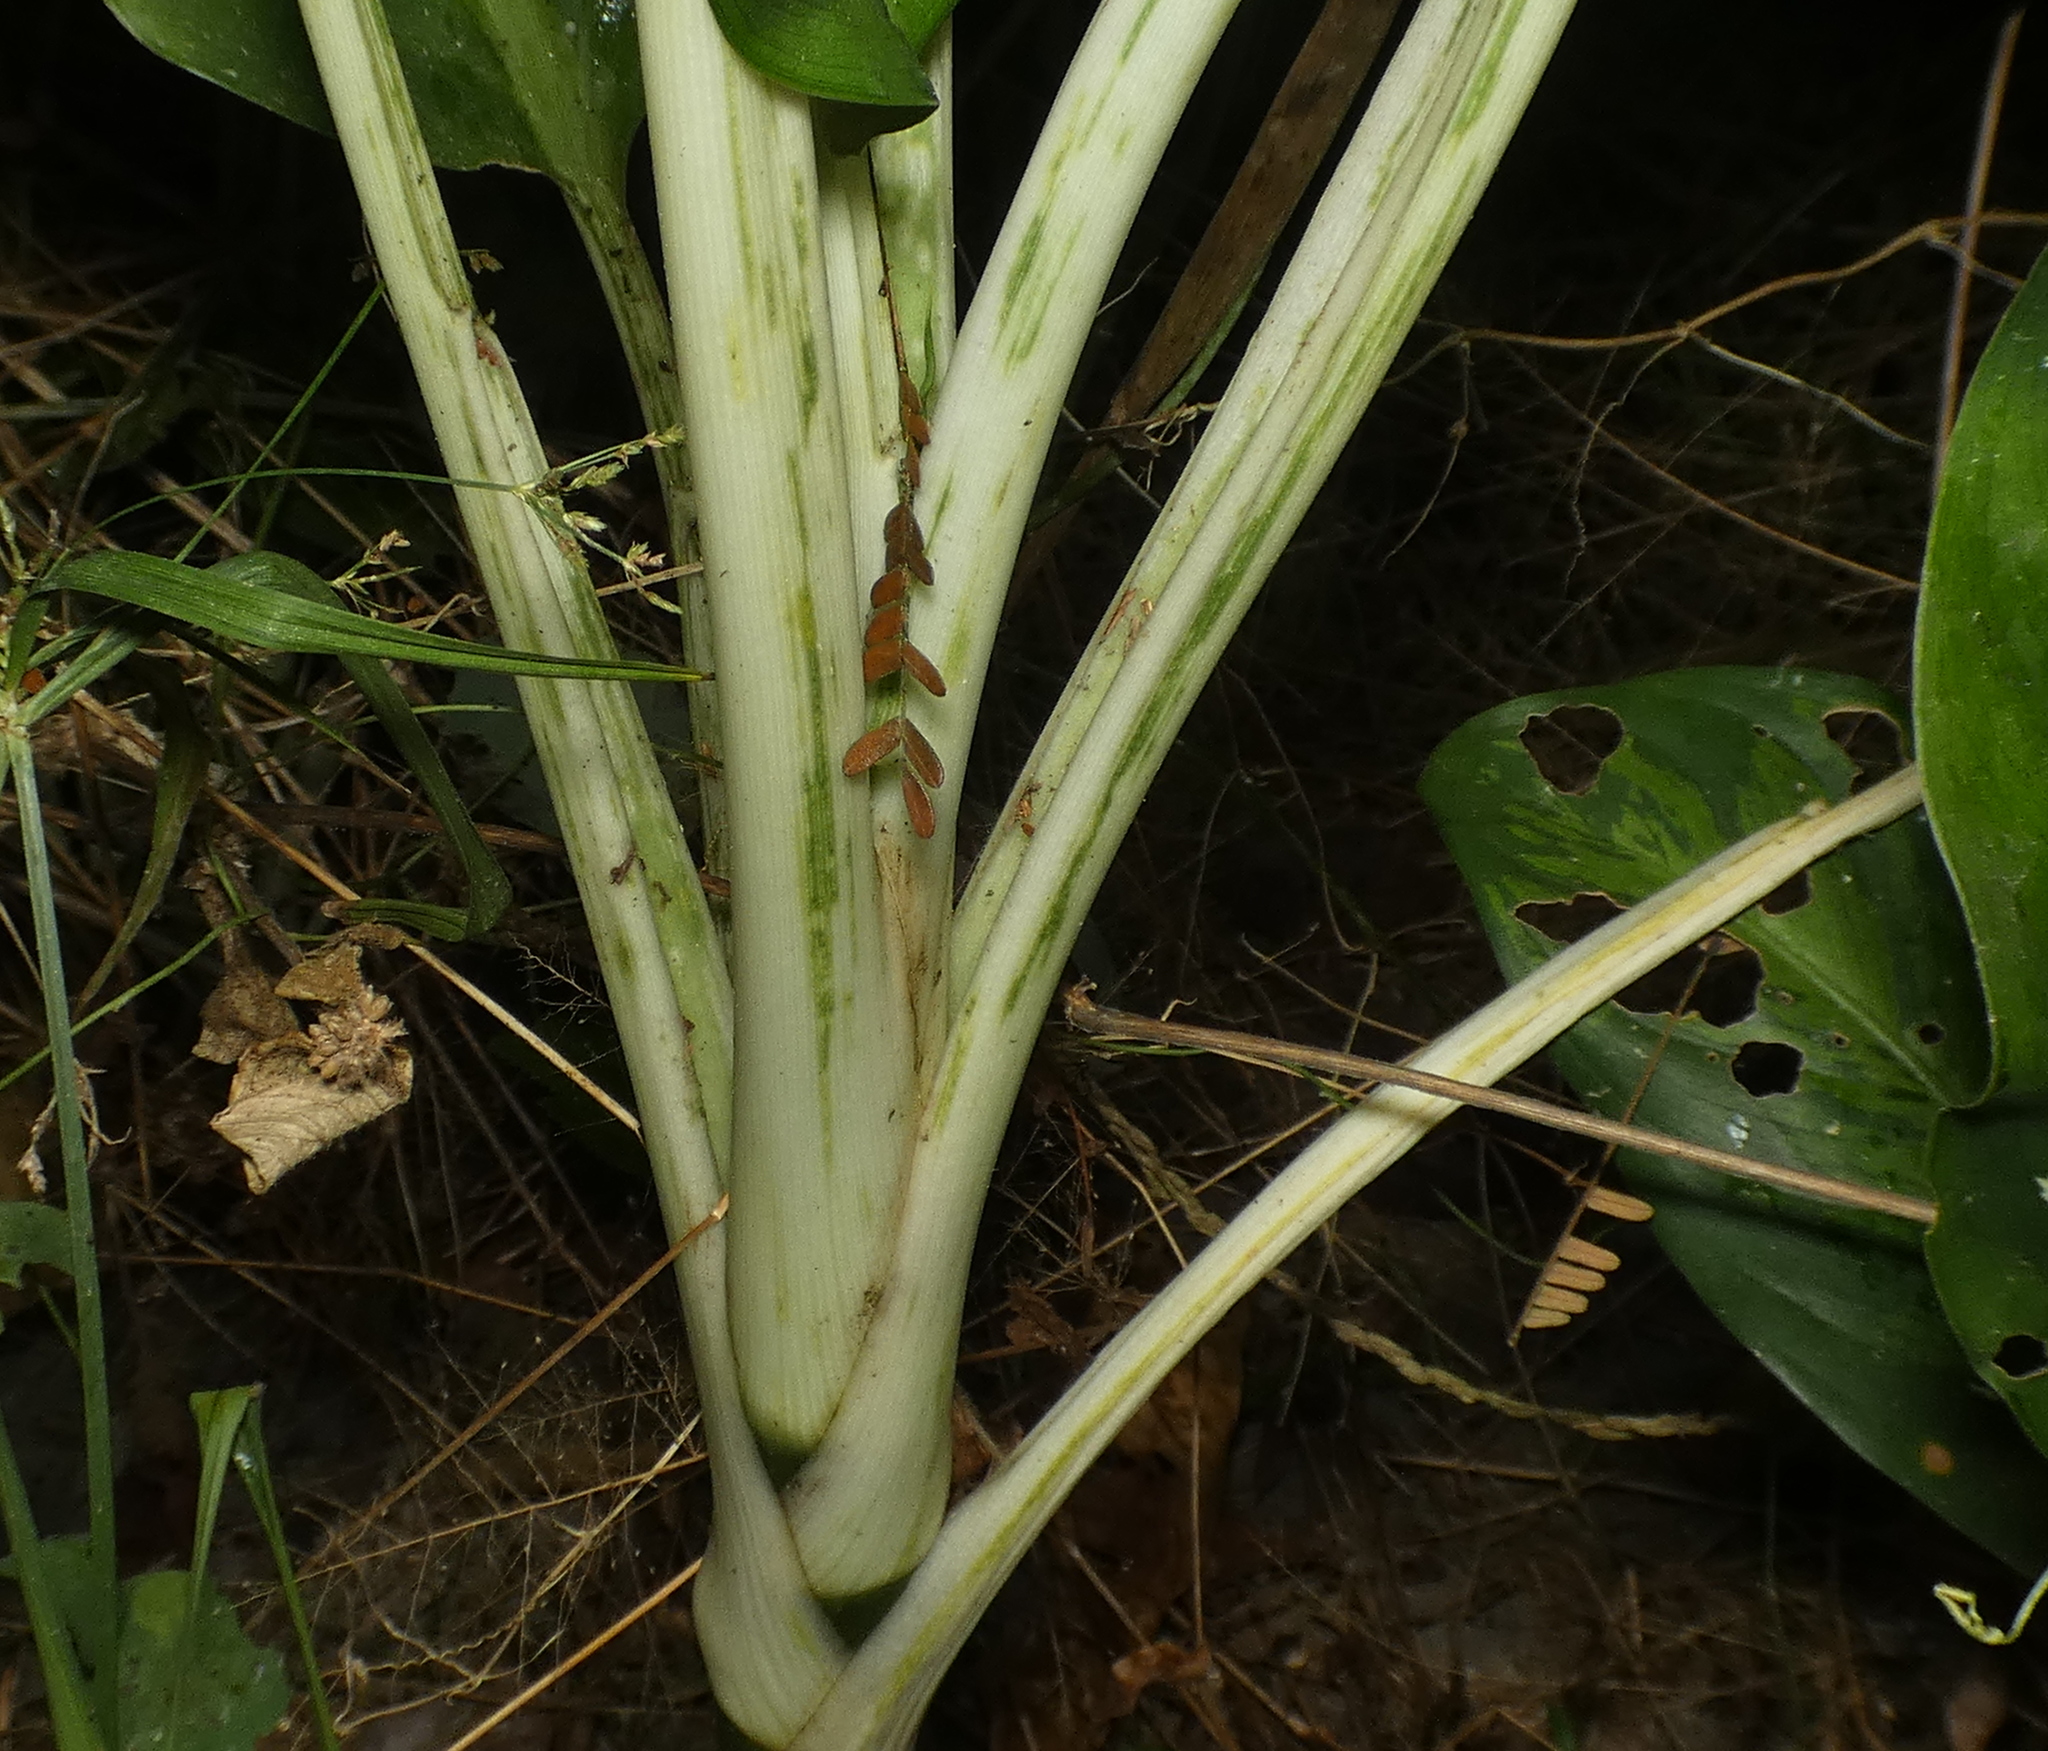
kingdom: Plantae
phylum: Tracheophyta
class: Liliopsida
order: Alismatales
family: Araceae
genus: Dieffenbachia
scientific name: Dieffenbachia seguine
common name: Dumbcane
